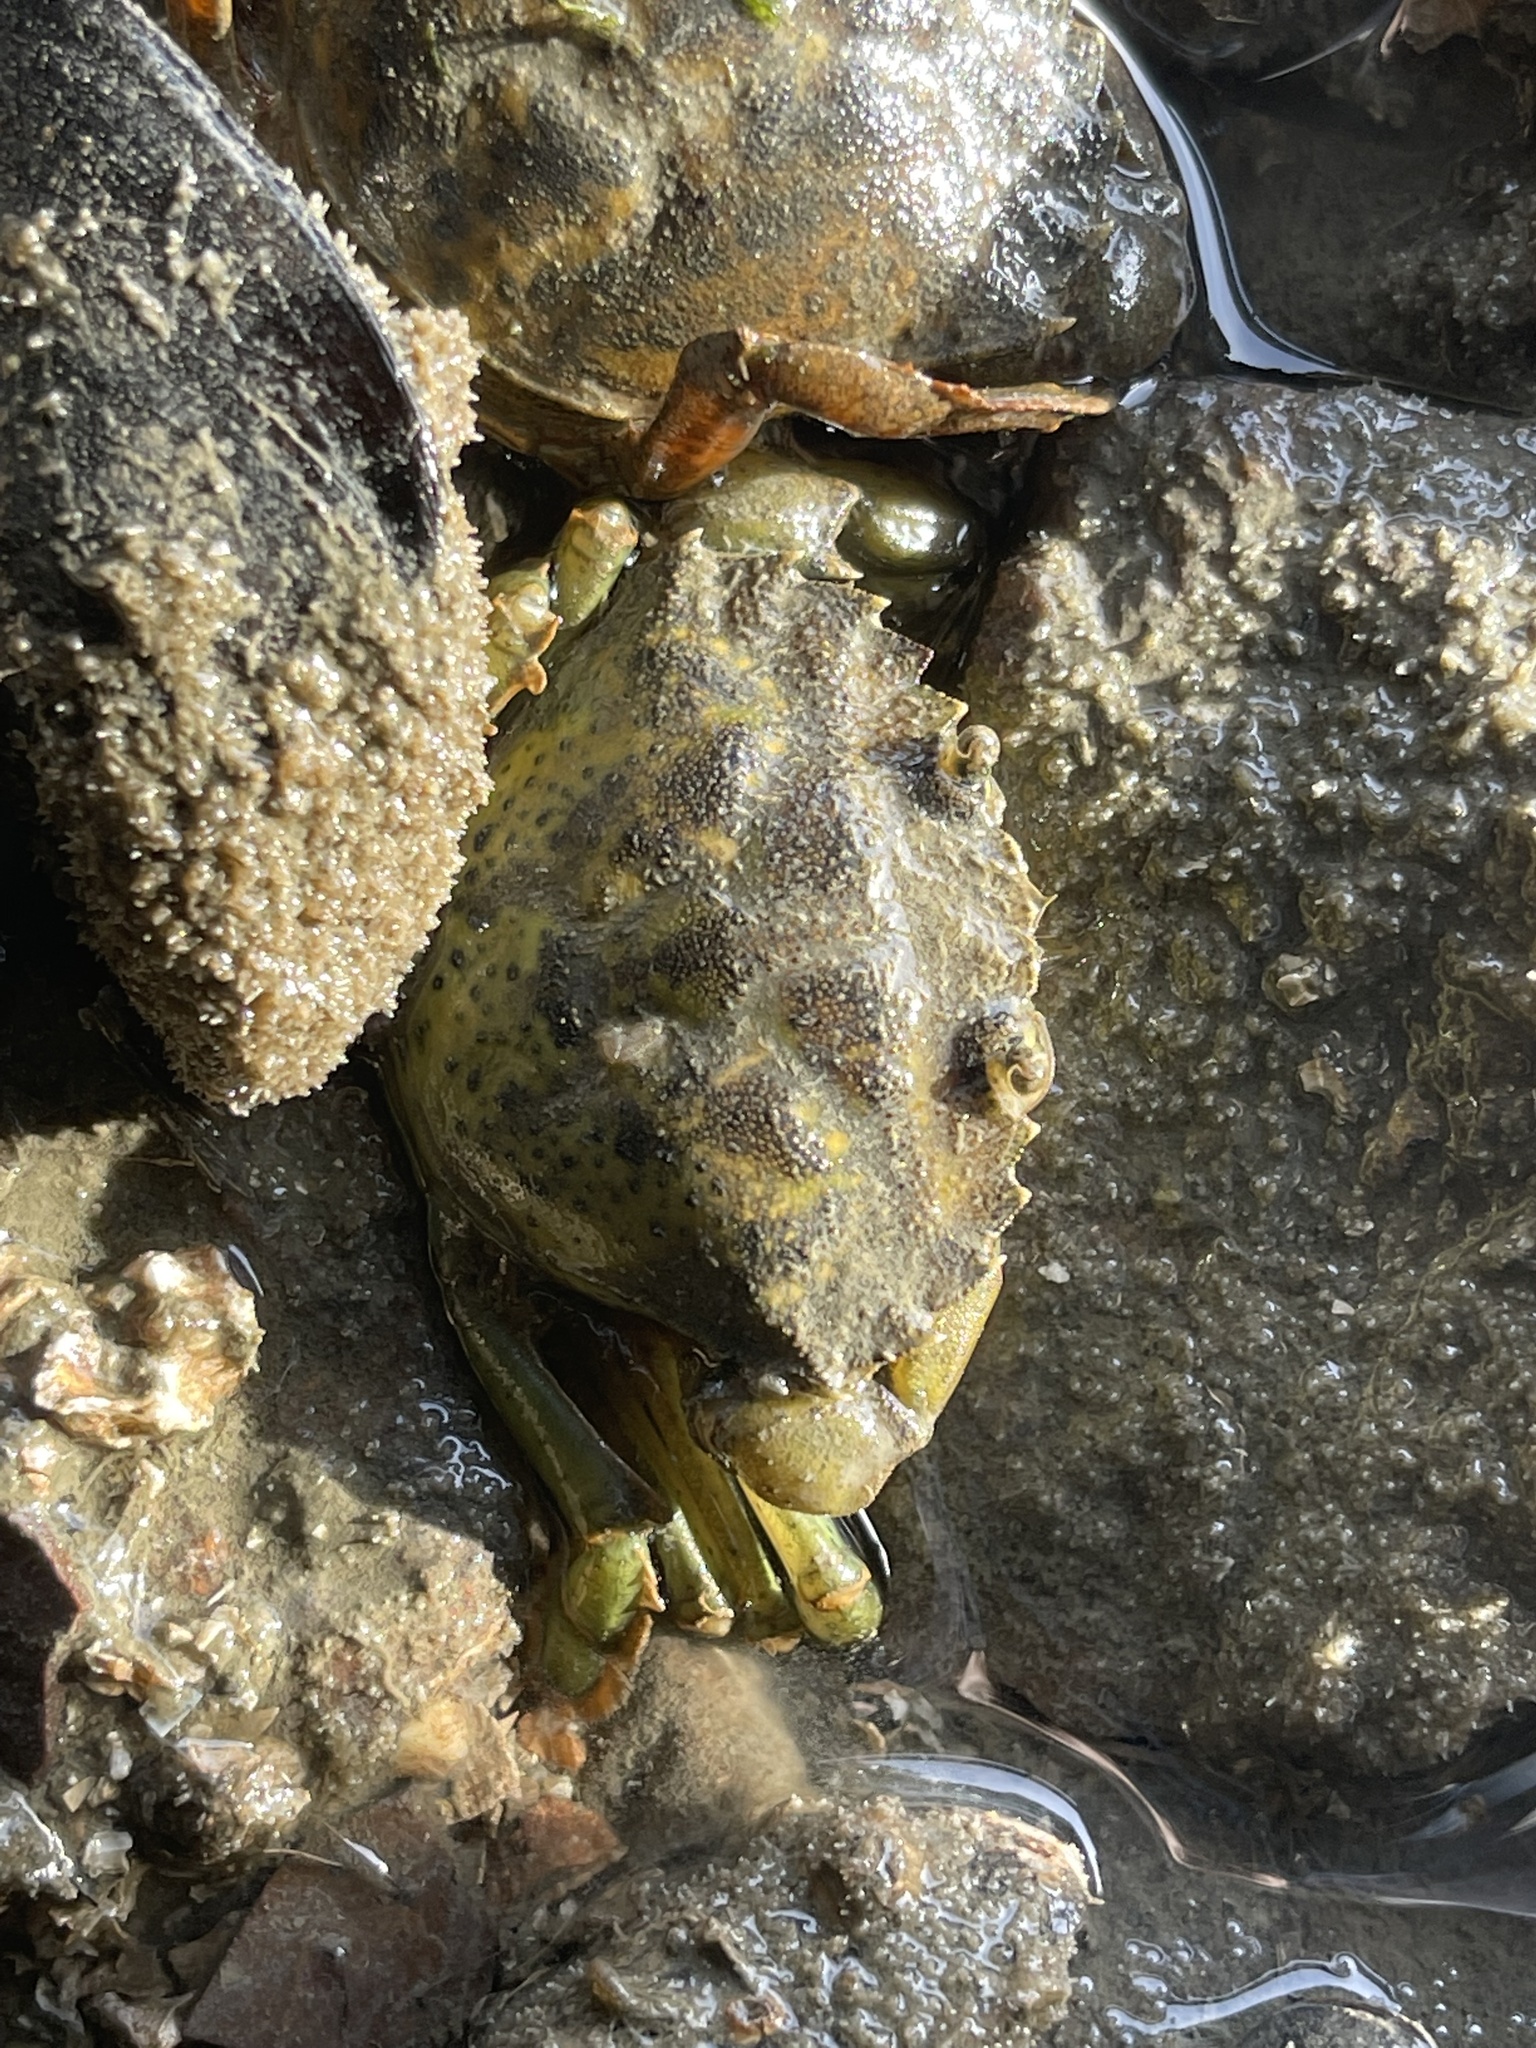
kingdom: Animalia
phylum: Arthropoda
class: Malacostraca
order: Decapoda
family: Carcinidae
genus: Carcinus
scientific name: Carcinus maenas
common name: European green crab
